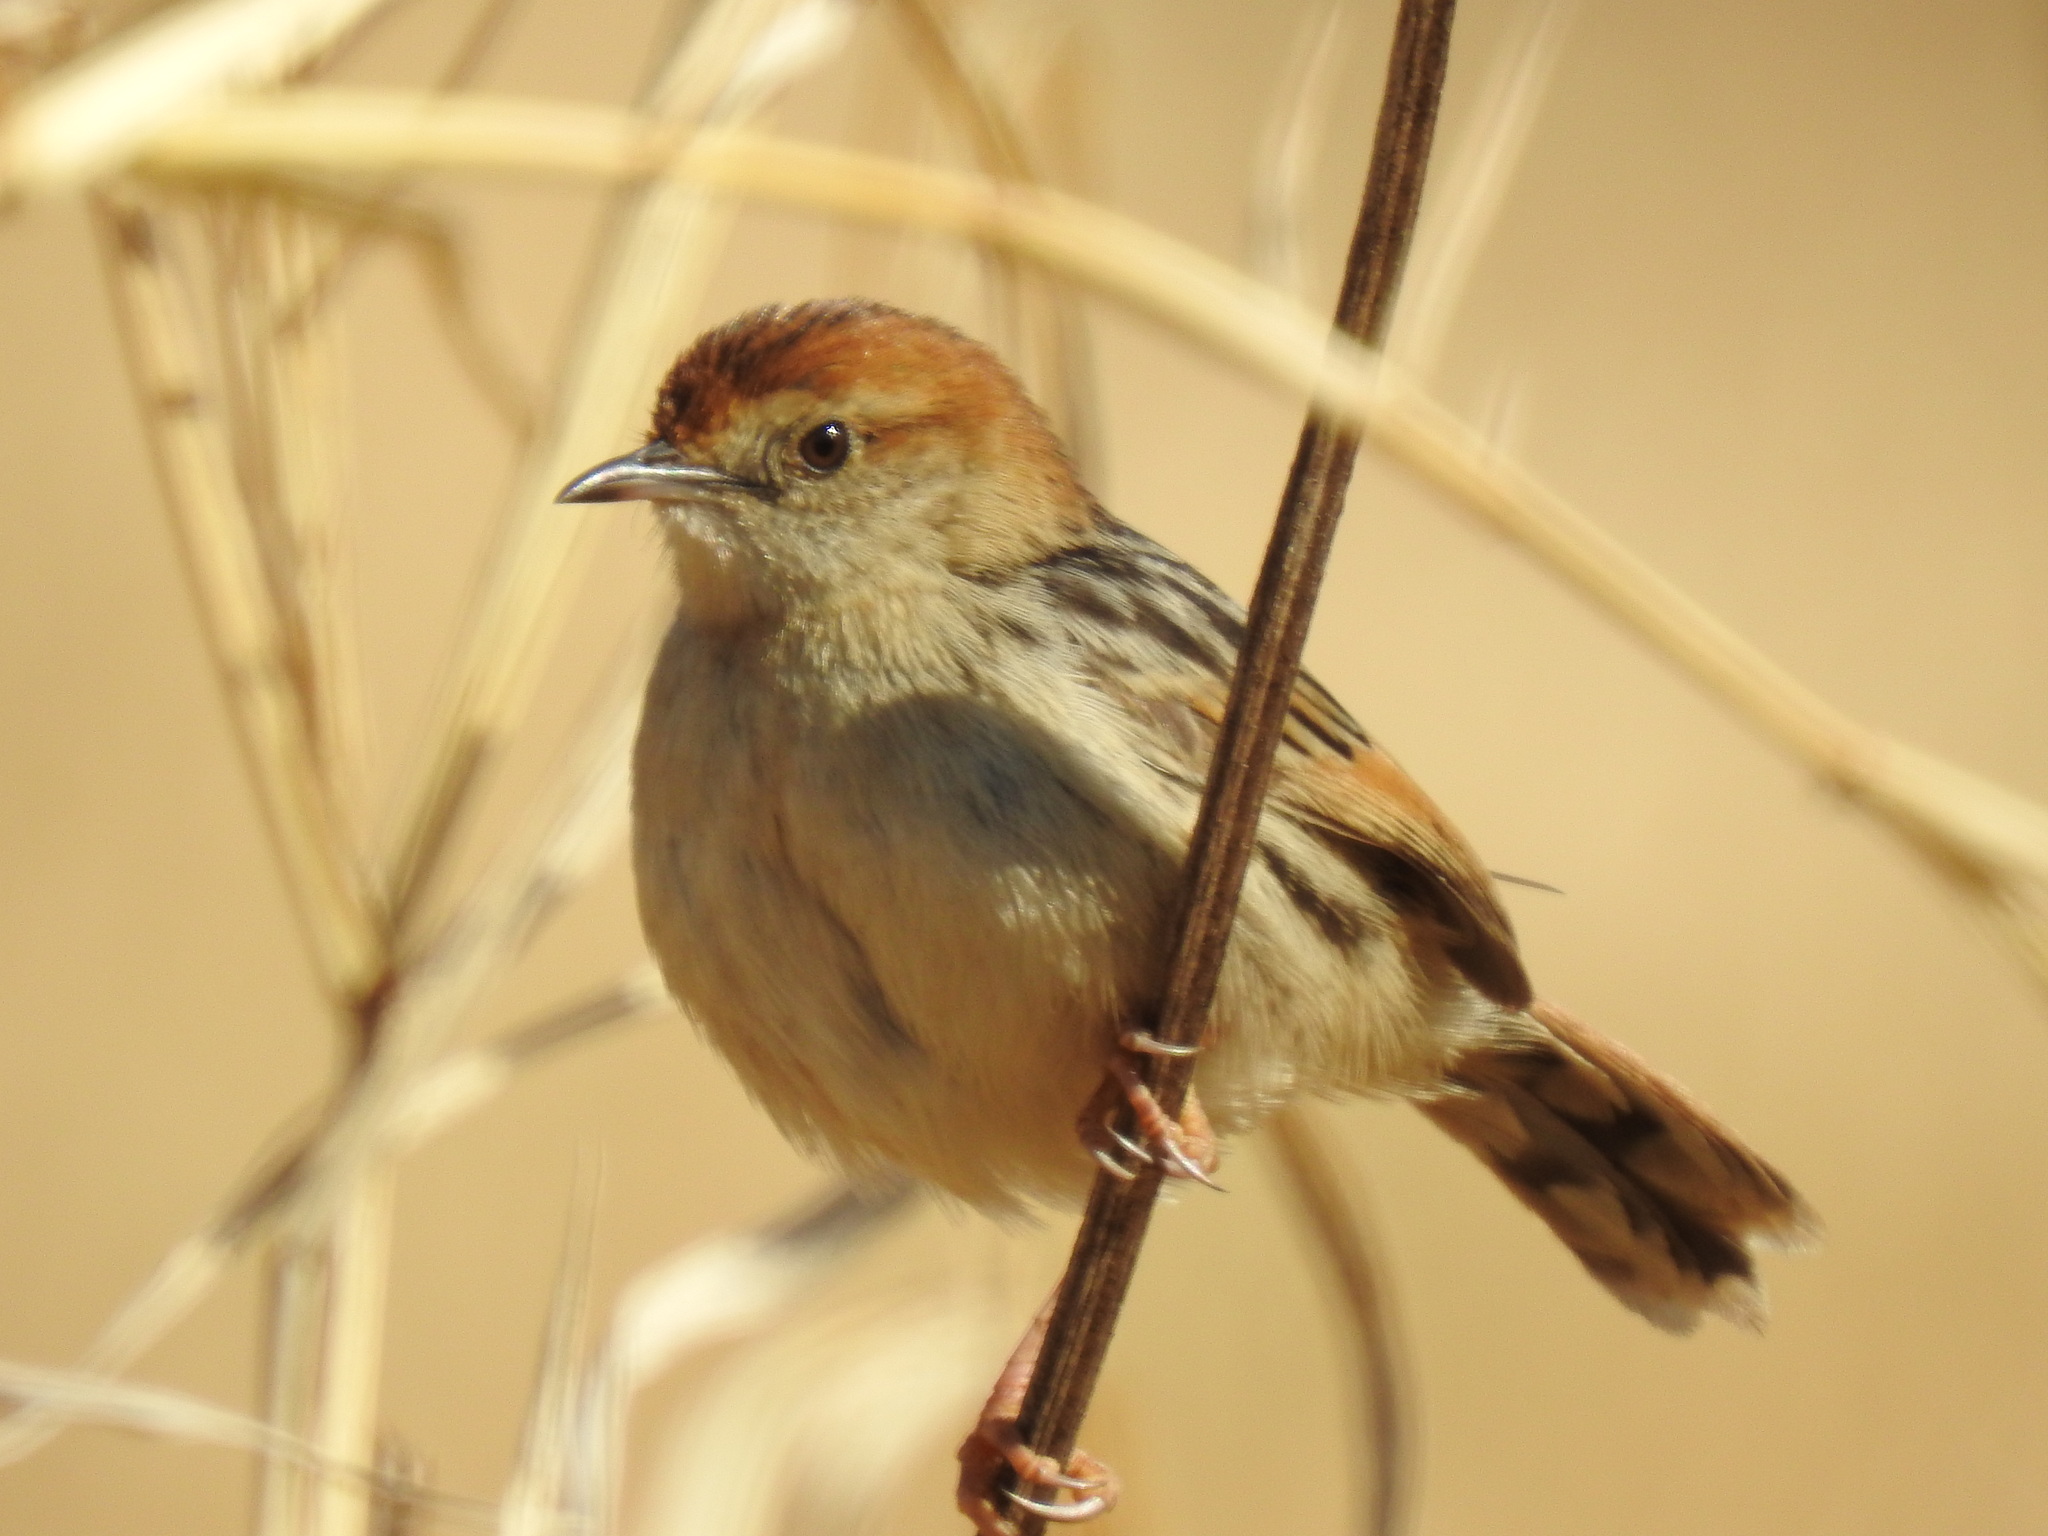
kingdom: Animalia
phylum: Chordata
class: Aves
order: Passeriformes
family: Cisticolidae
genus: Cisticola
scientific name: Cisticola tinniens
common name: Levaillant's cisticola
